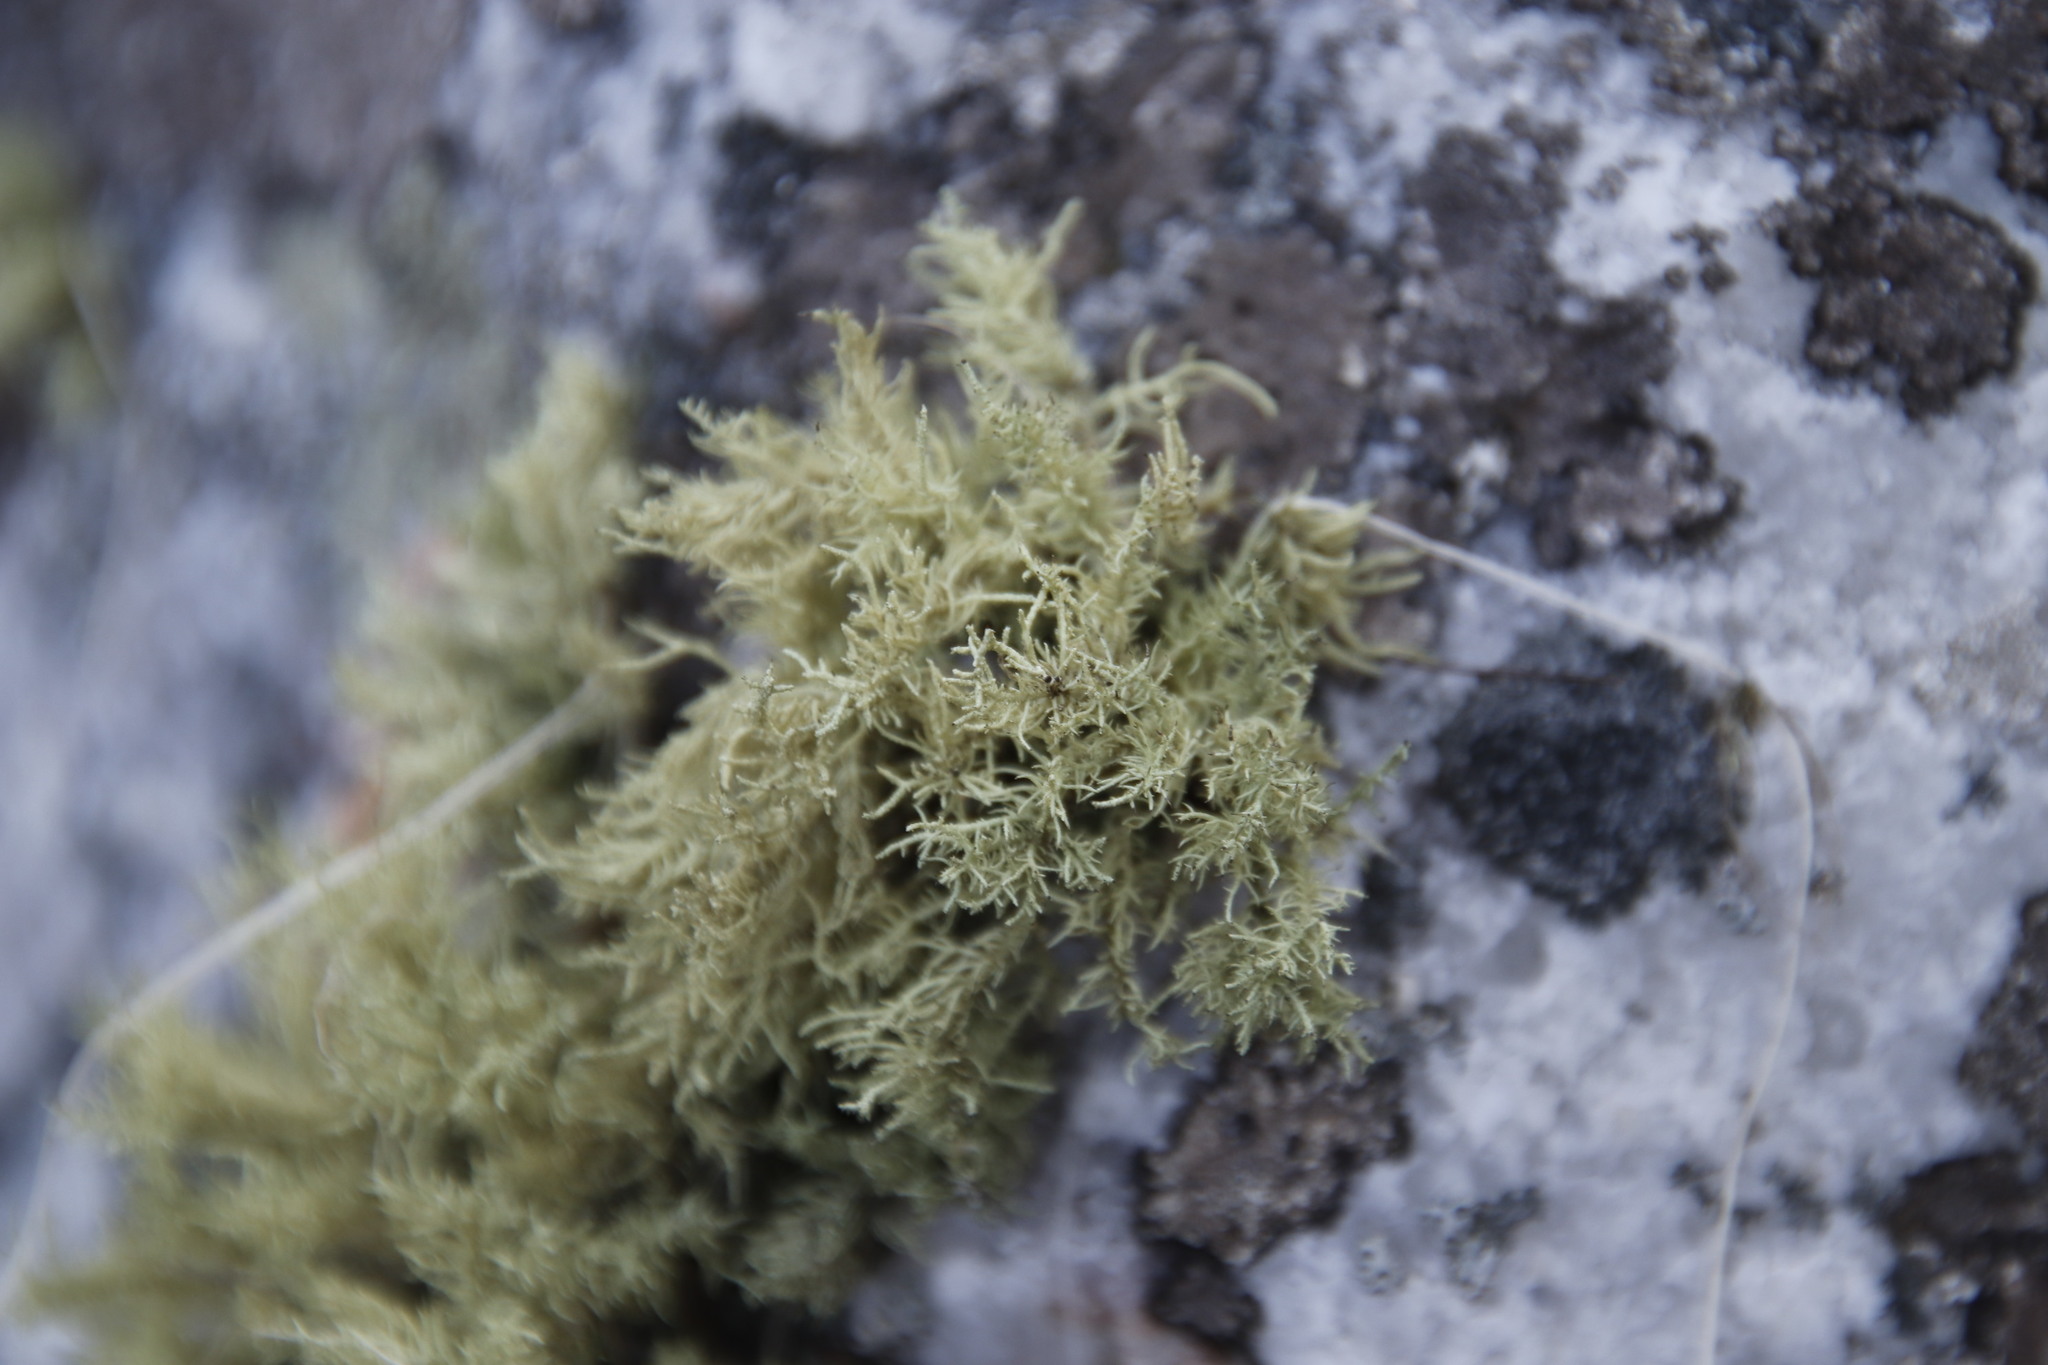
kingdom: Fungi
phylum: Ascomycota
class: Lecanoromycetes
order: Lecanorales
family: Parmeliaceae
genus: Usnea
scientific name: Usnea pulvinata
